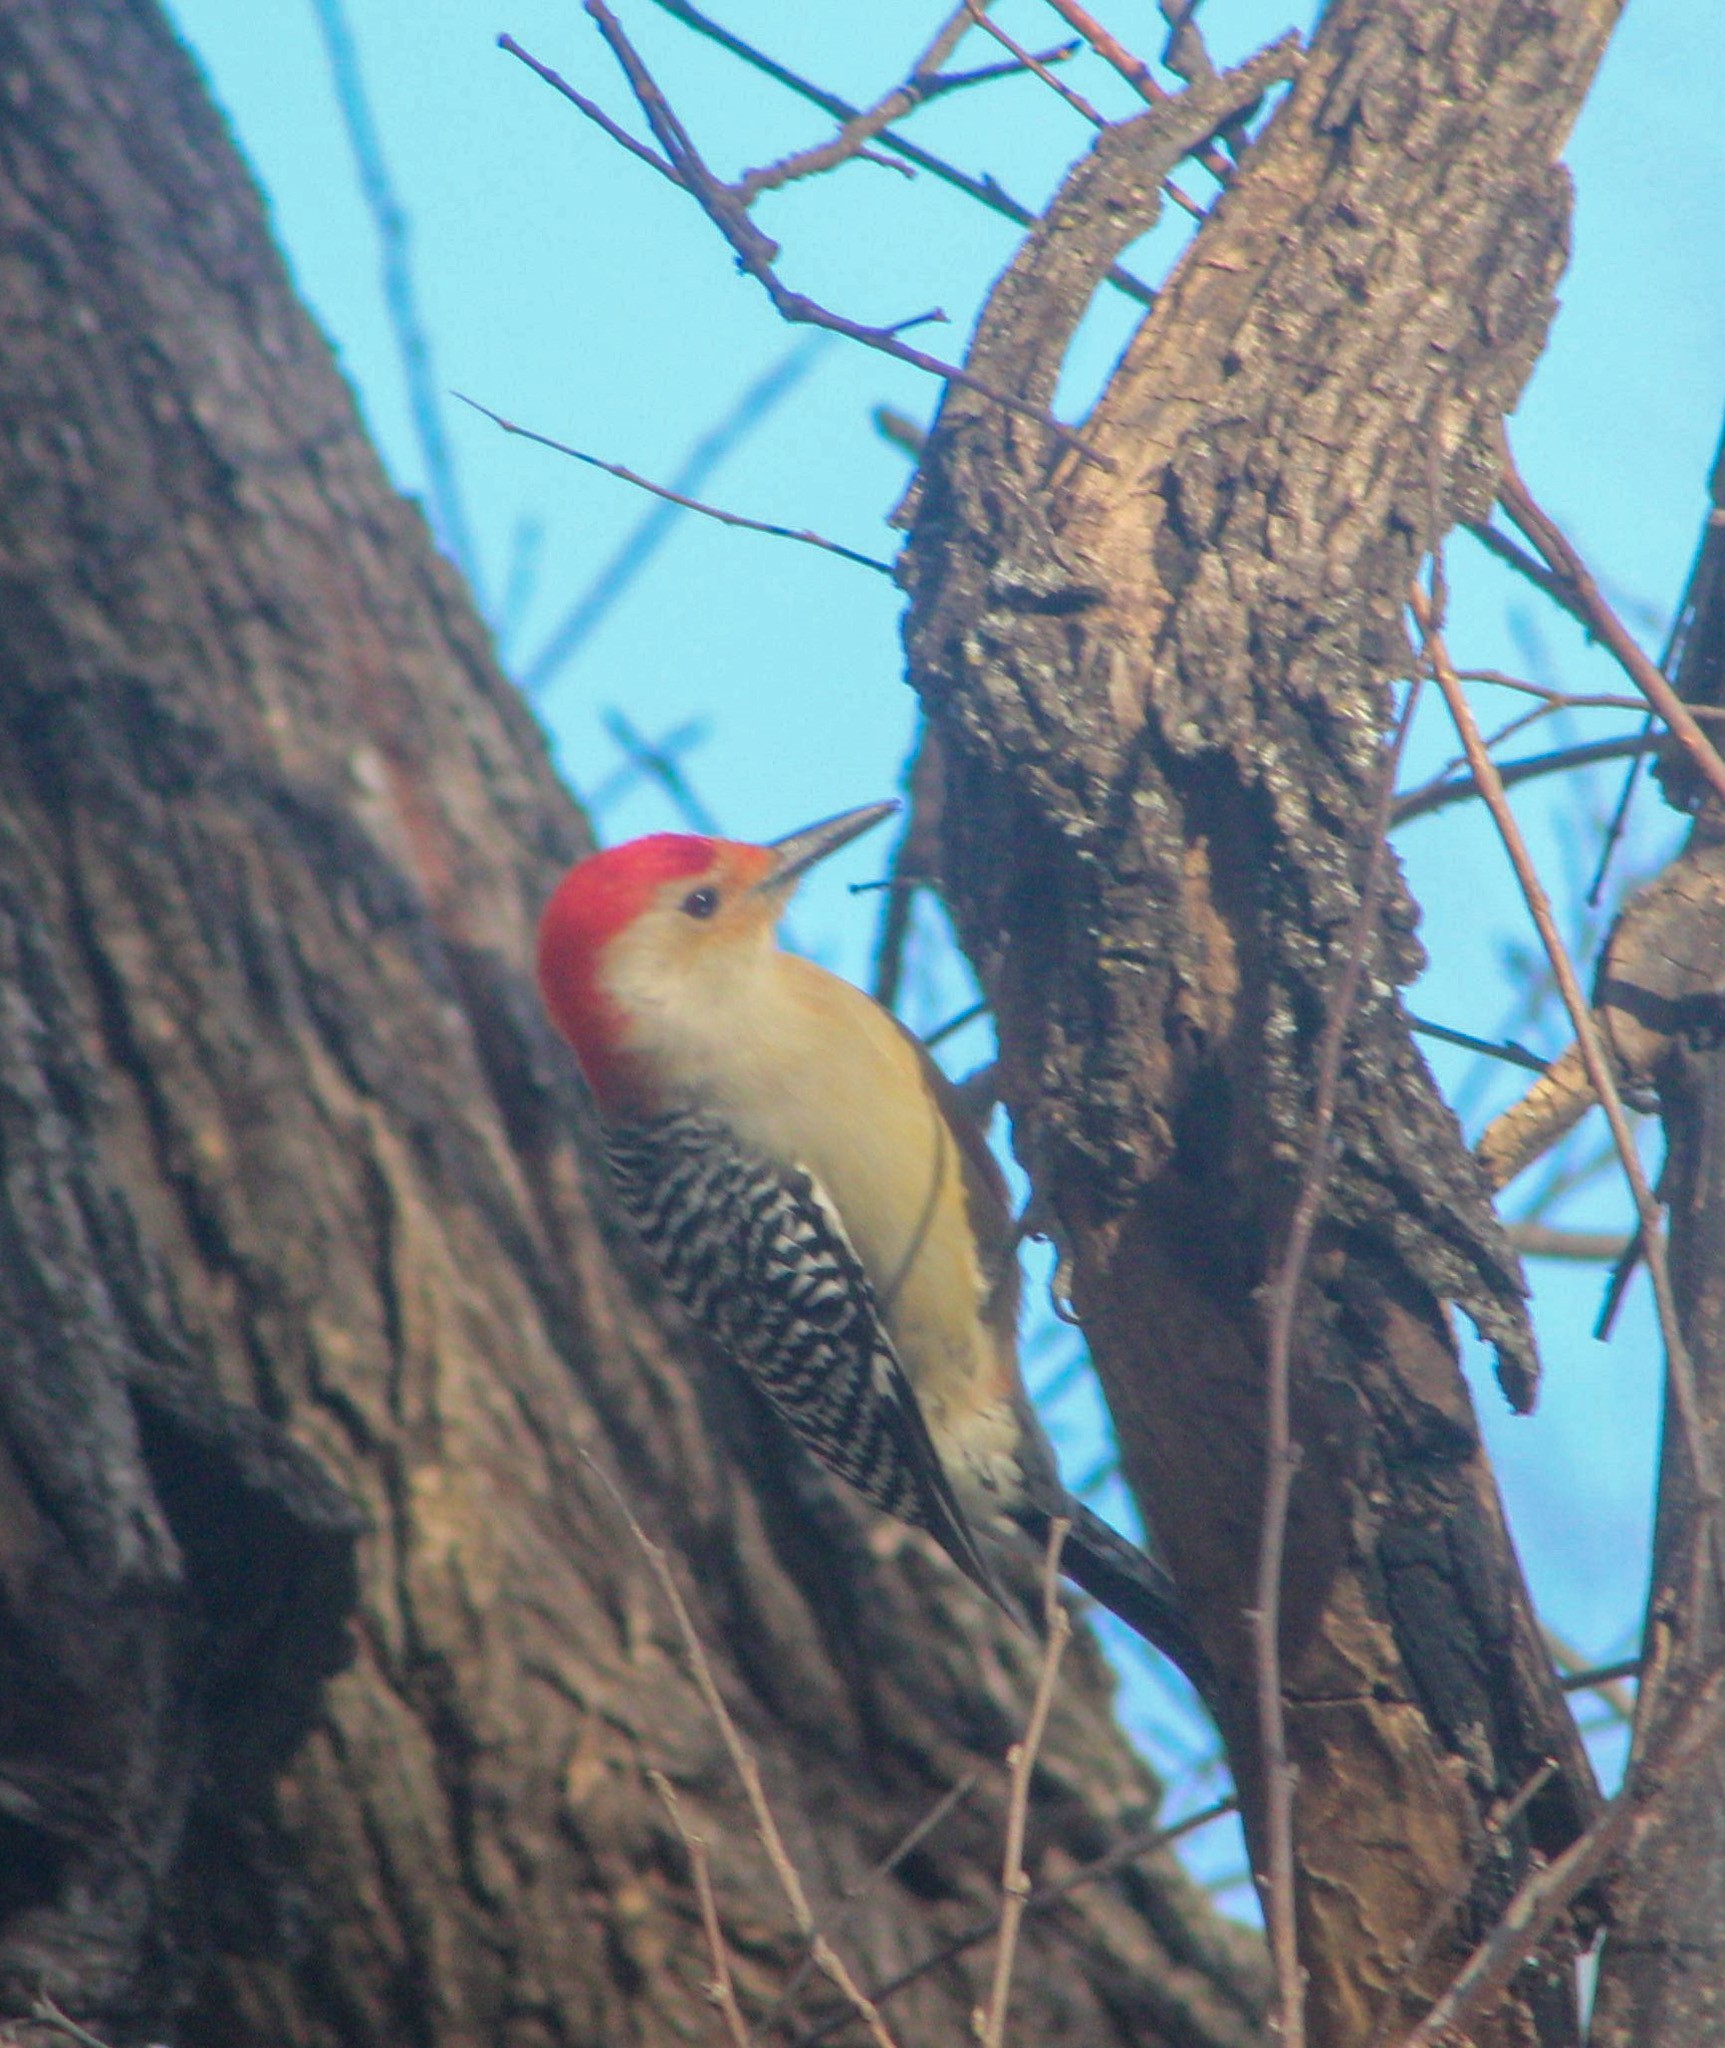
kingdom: Animalia
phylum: Chordata
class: Aves
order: Piciformes
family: Picidae
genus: Melanerpes
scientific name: Melanerpes carolinus
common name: Red-bellied woodpecker
